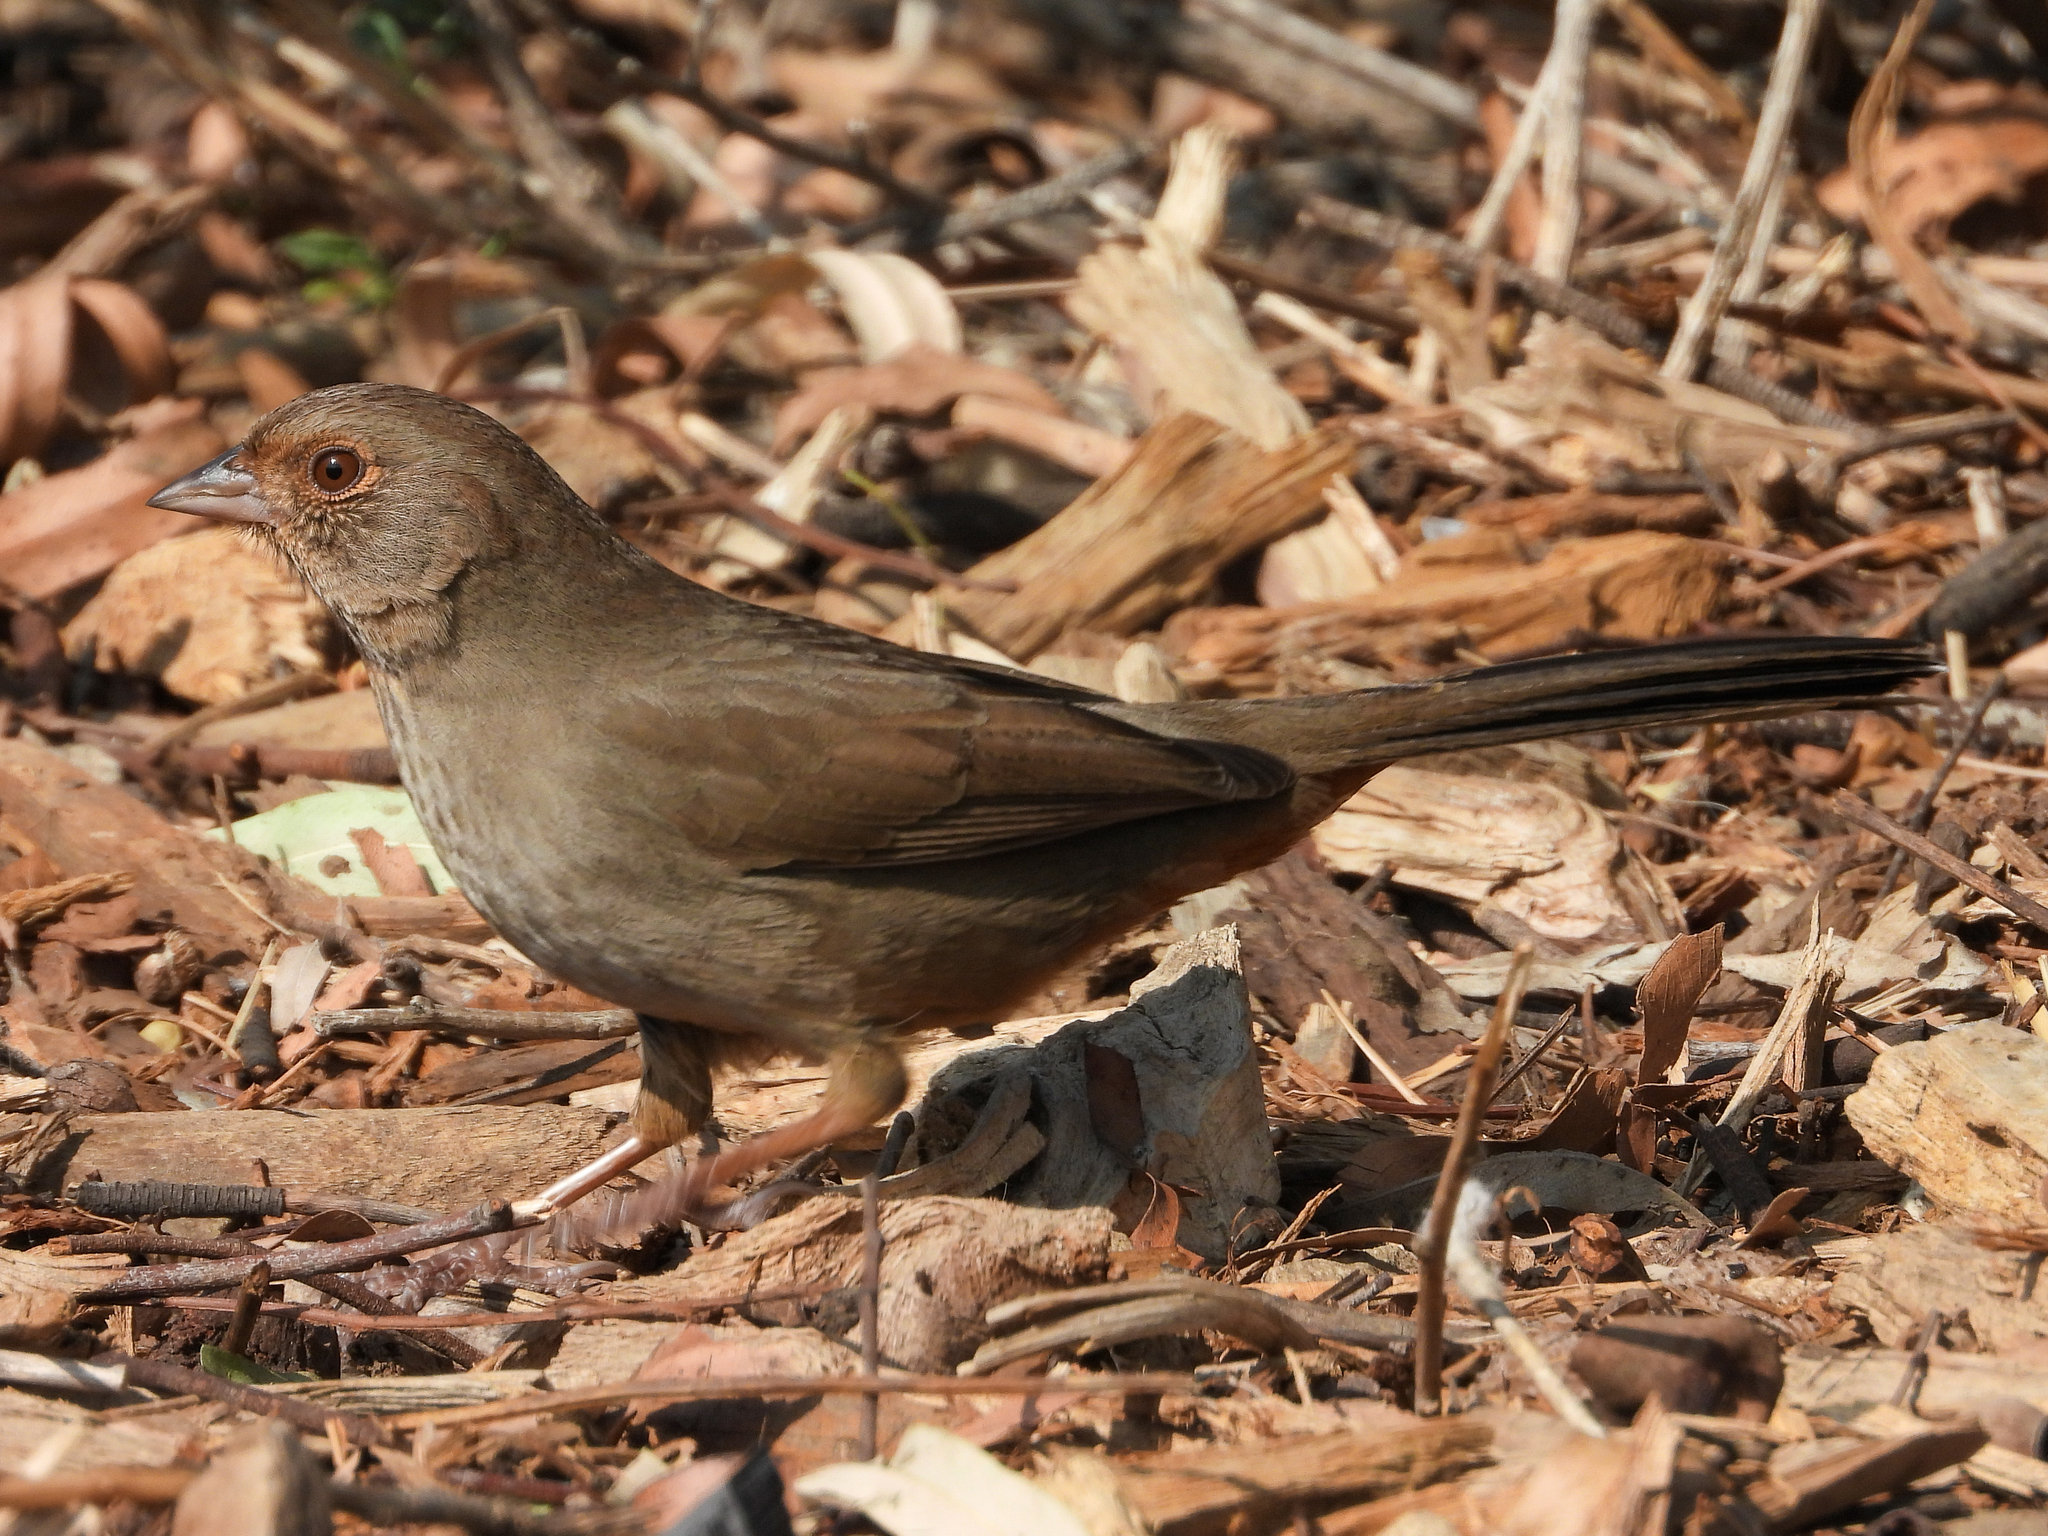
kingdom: Animalia
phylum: Chordata
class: Aves
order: Passeriformes
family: Passerellidae
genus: Melozone
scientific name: Melozone crissalis
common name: California towhee
